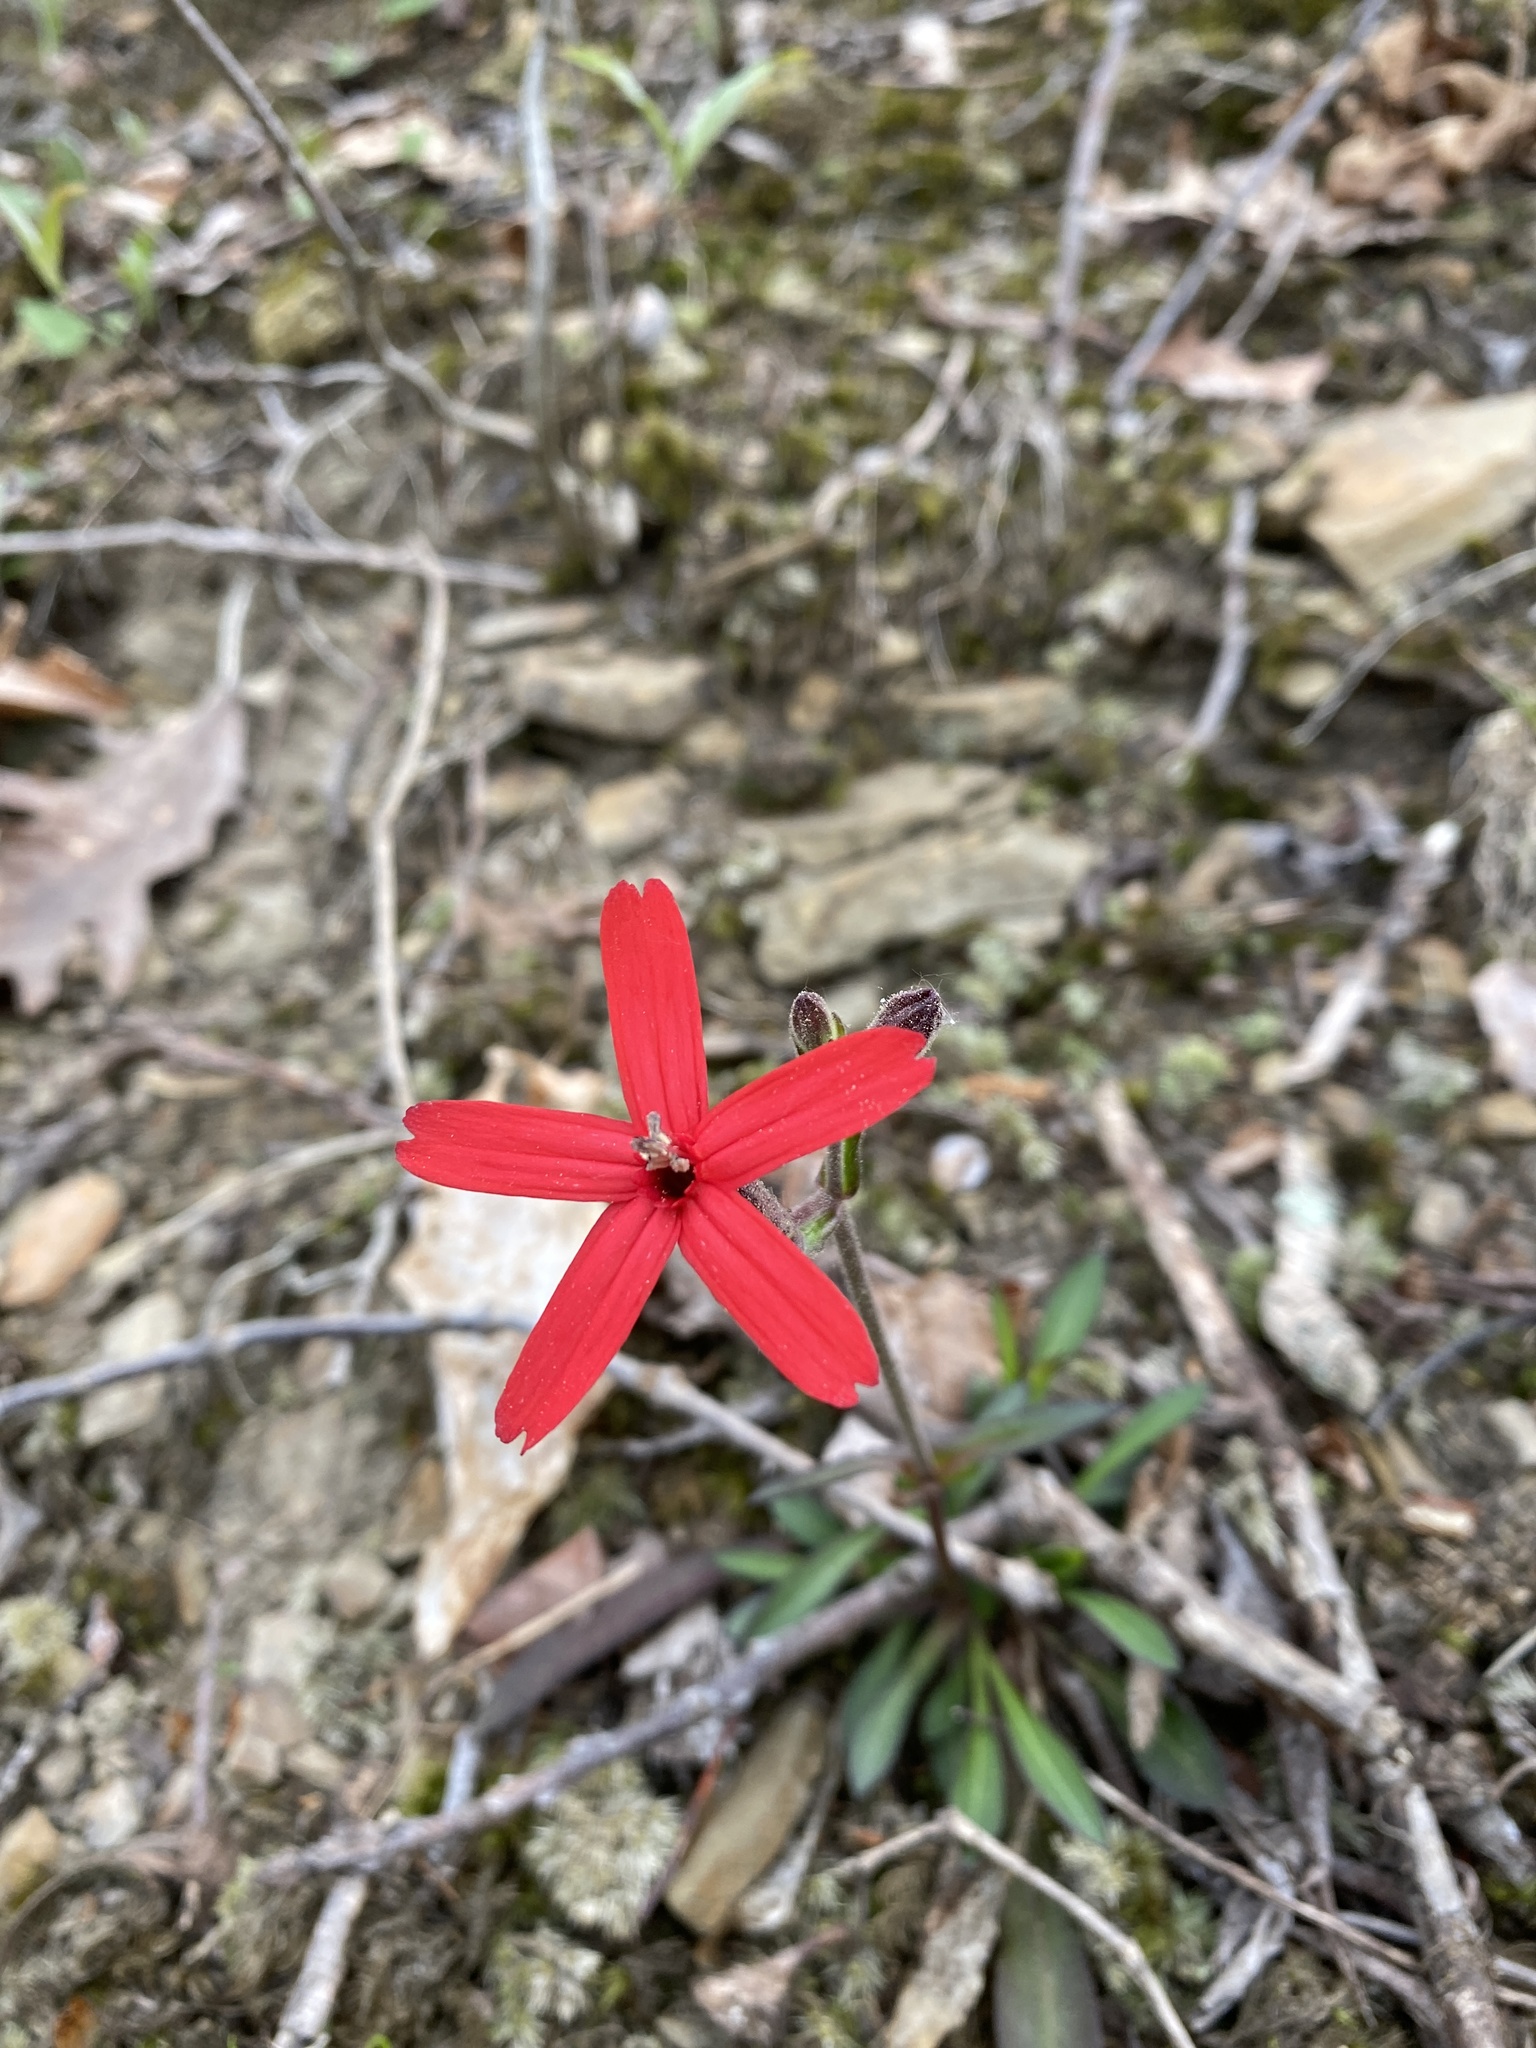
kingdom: Plantae
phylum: Tracheophyta
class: Magnoliopsida
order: Caryophyllales
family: Caryophyllaceae
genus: Silene
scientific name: Silene virginica
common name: Fire-pink
